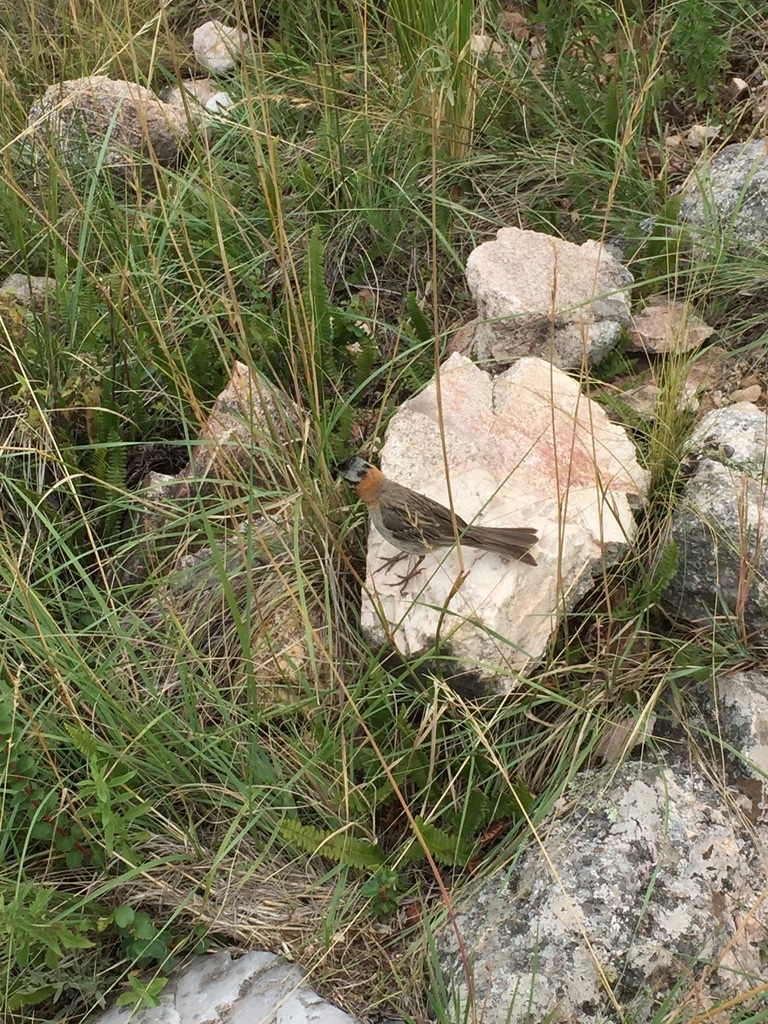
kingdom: Animalia
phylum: Chordata
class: Aves
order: Passeriformes
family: Passerellidae
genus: Zonotrichia
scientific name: Zonotrichia capensis
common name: Rufous-collared sparrow
